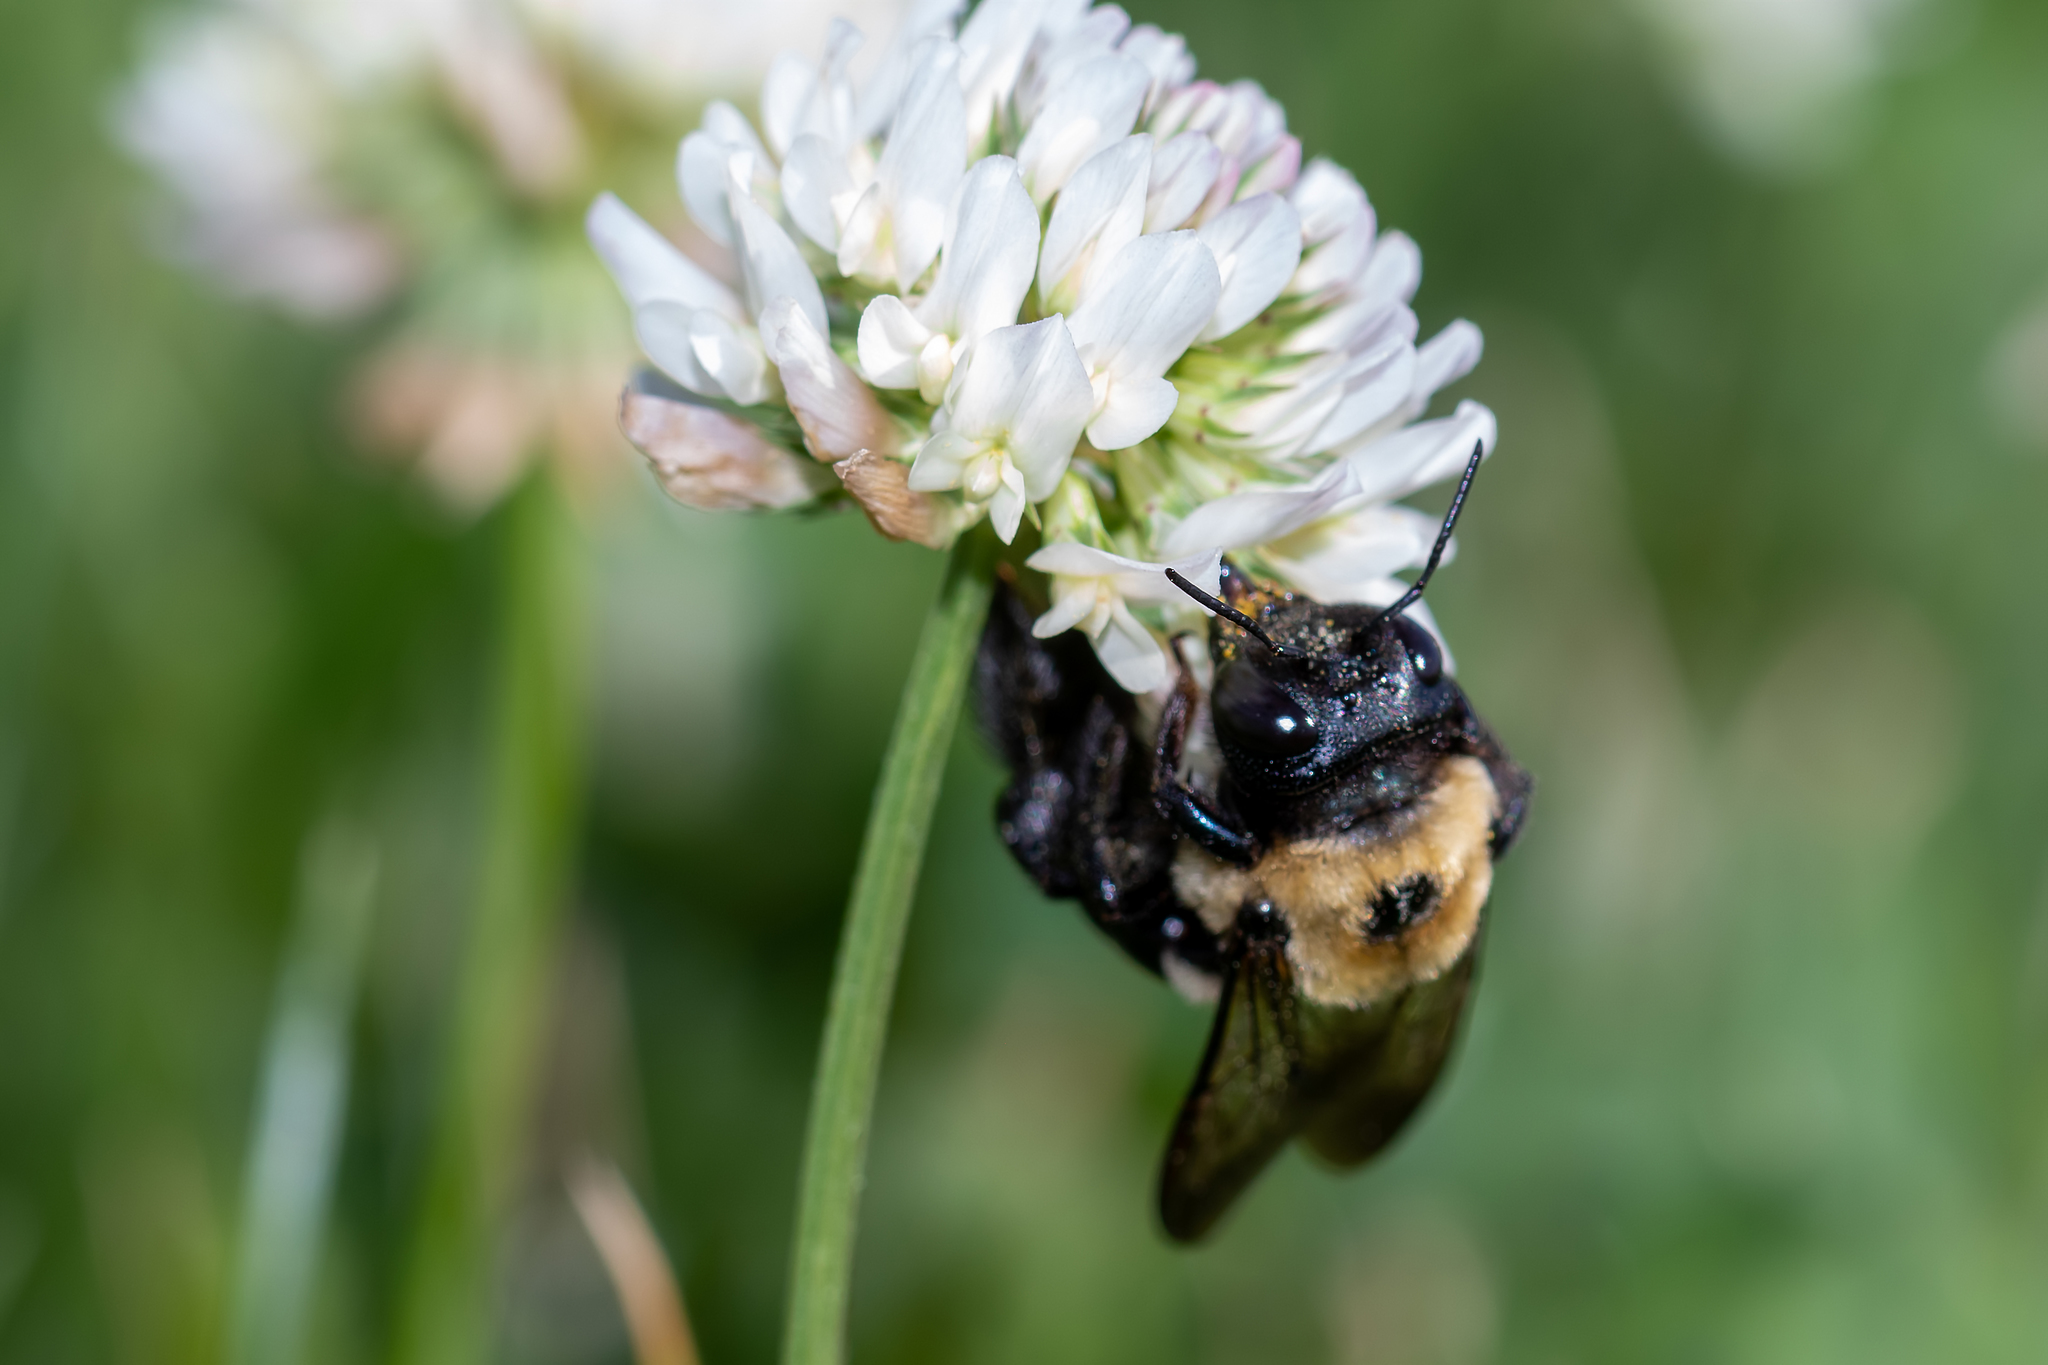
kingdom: Animalia
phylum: Arthropoda
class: Insecta
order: Hymenoptera
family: Apidae
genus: Xylocopa
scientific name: Xylocopa virginica
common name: Carpenter bee
